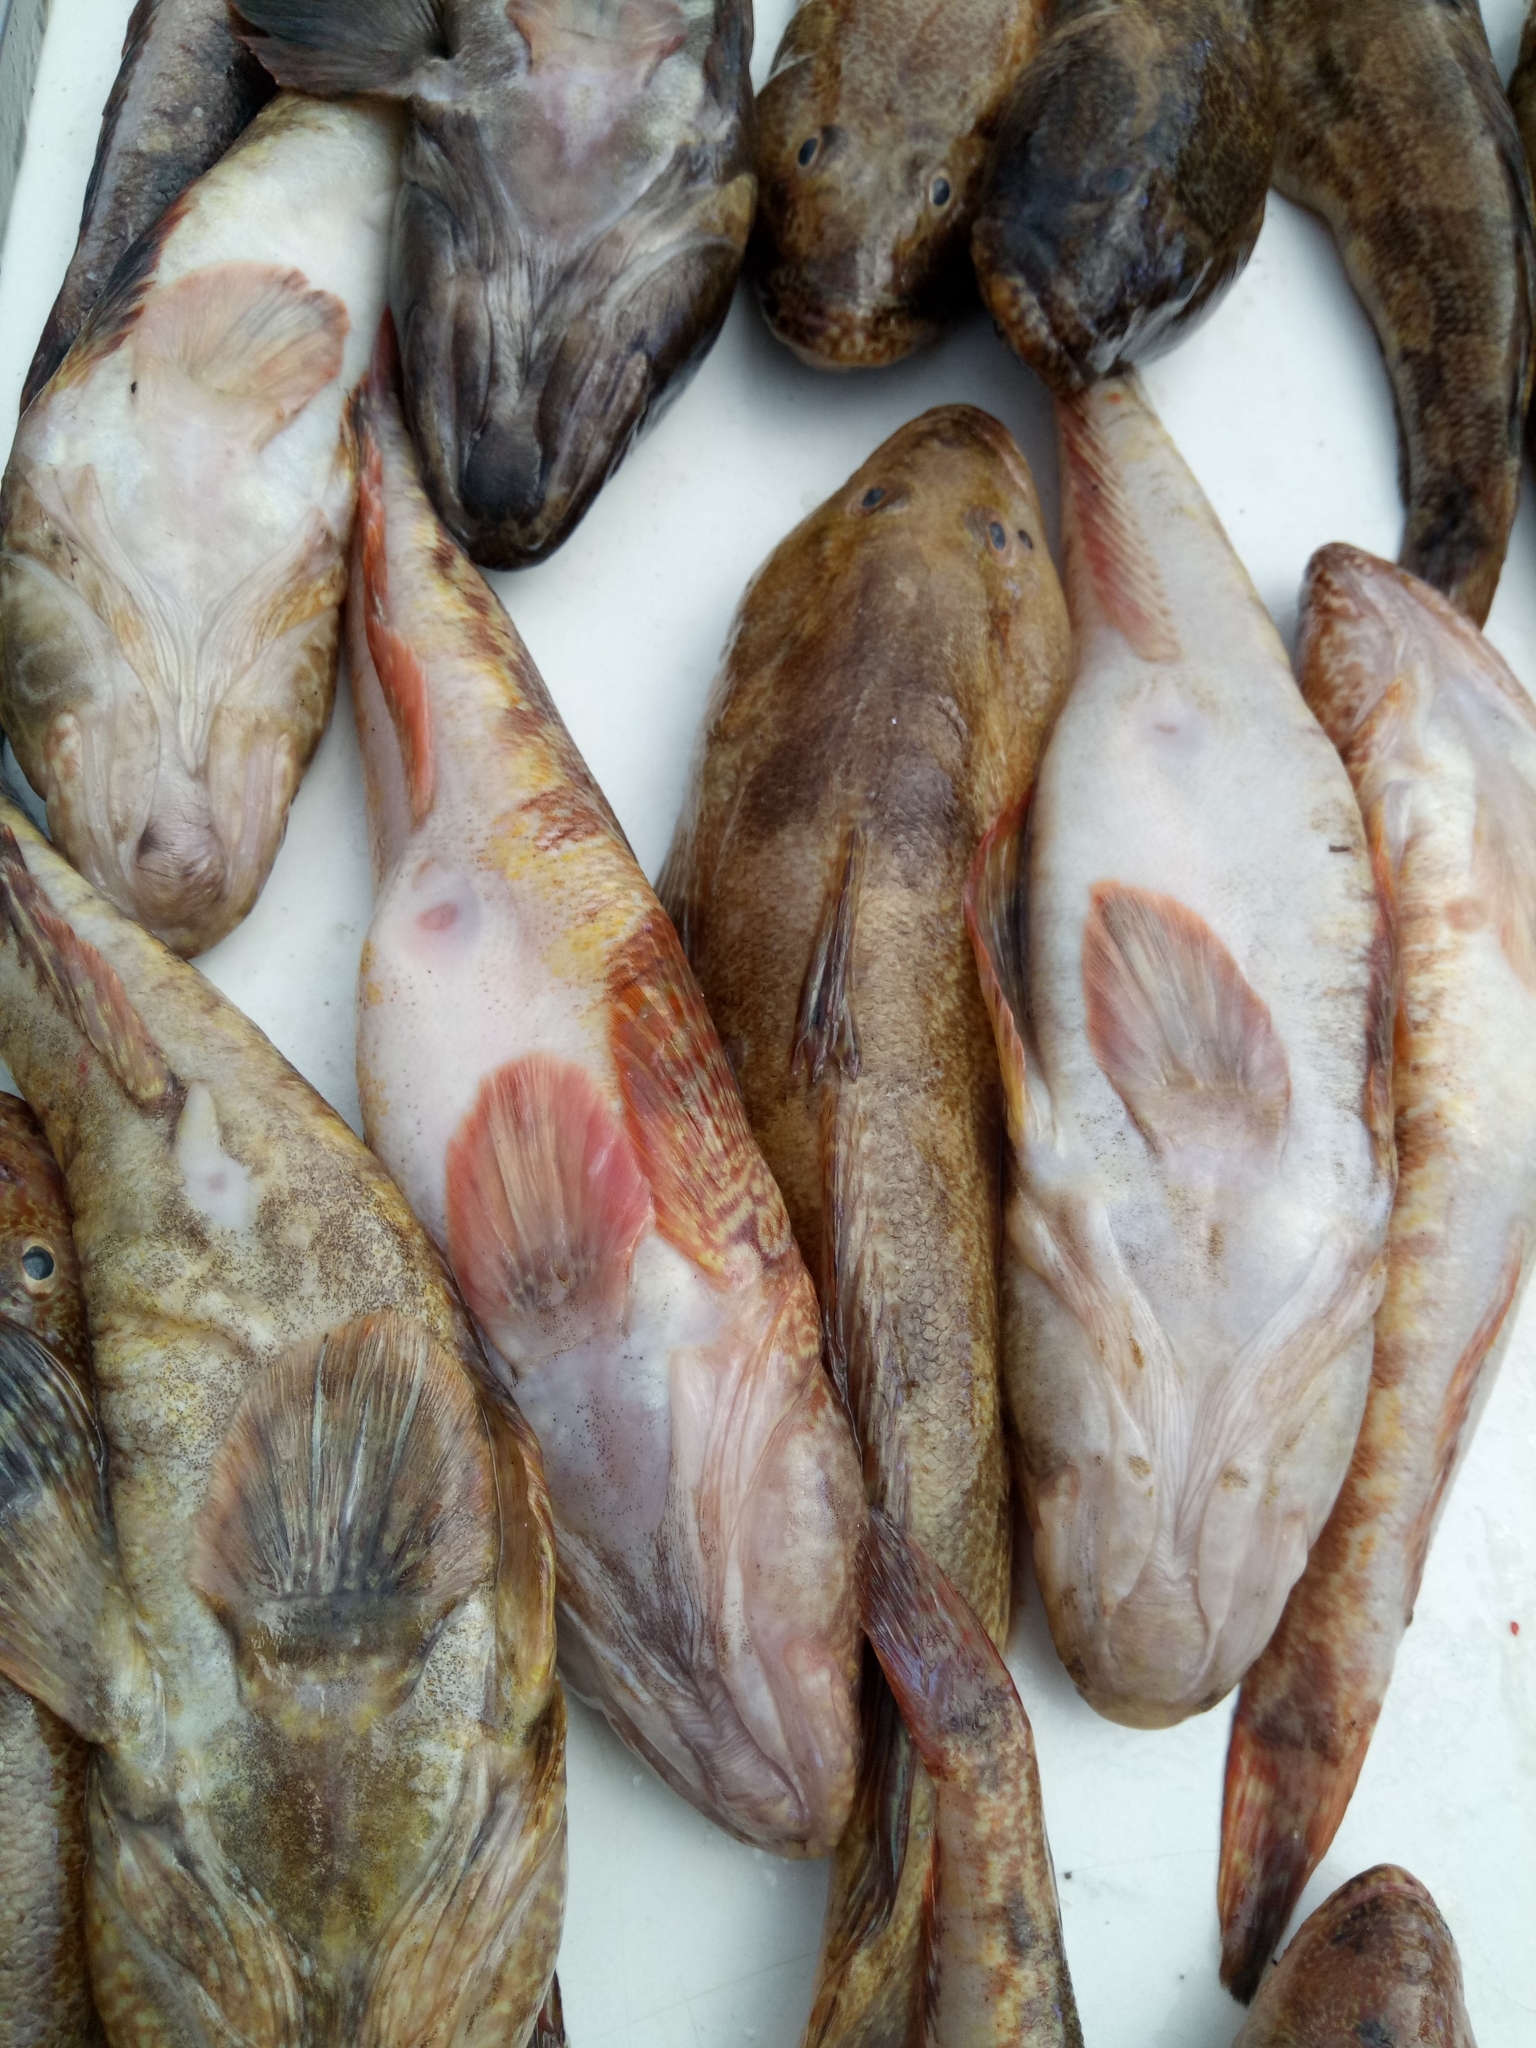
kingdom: Animalia
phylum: Chordata
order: Perciformes
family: Gobiidae
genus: Mesogobius
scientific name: Mesogobius batrachocephalus
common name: Knout goby
